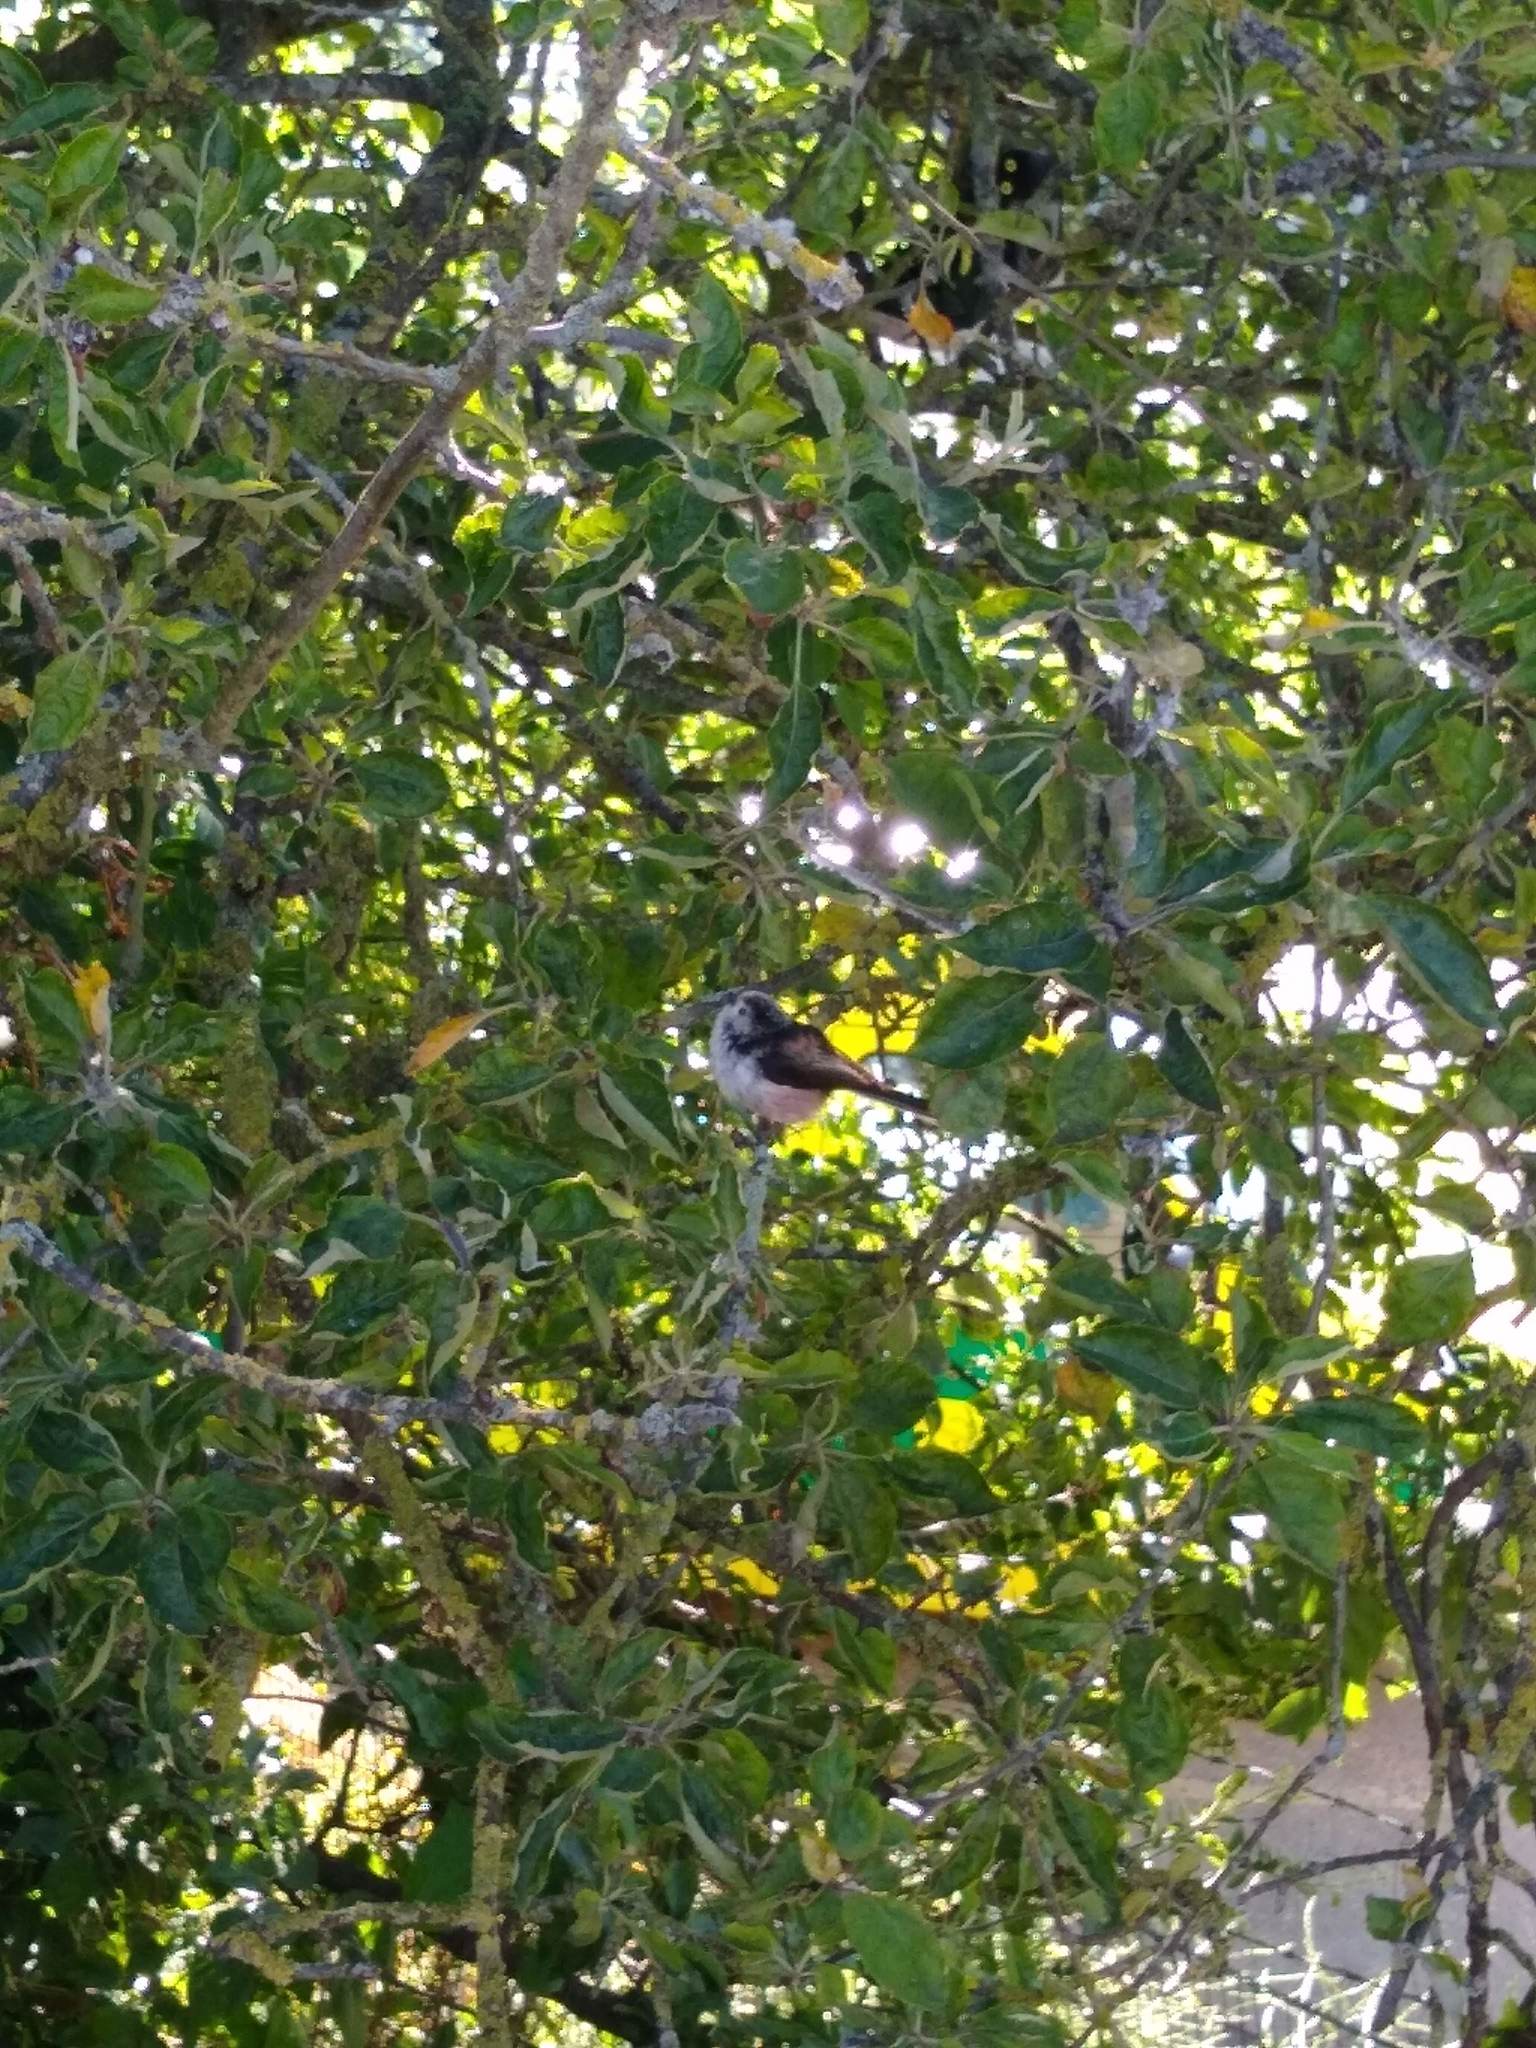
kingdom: Animalia
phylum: Chordata
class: Aves
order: Passeriformes
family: Aegithalidae
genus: Aegithalos
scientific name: Aegithalos caudatus
